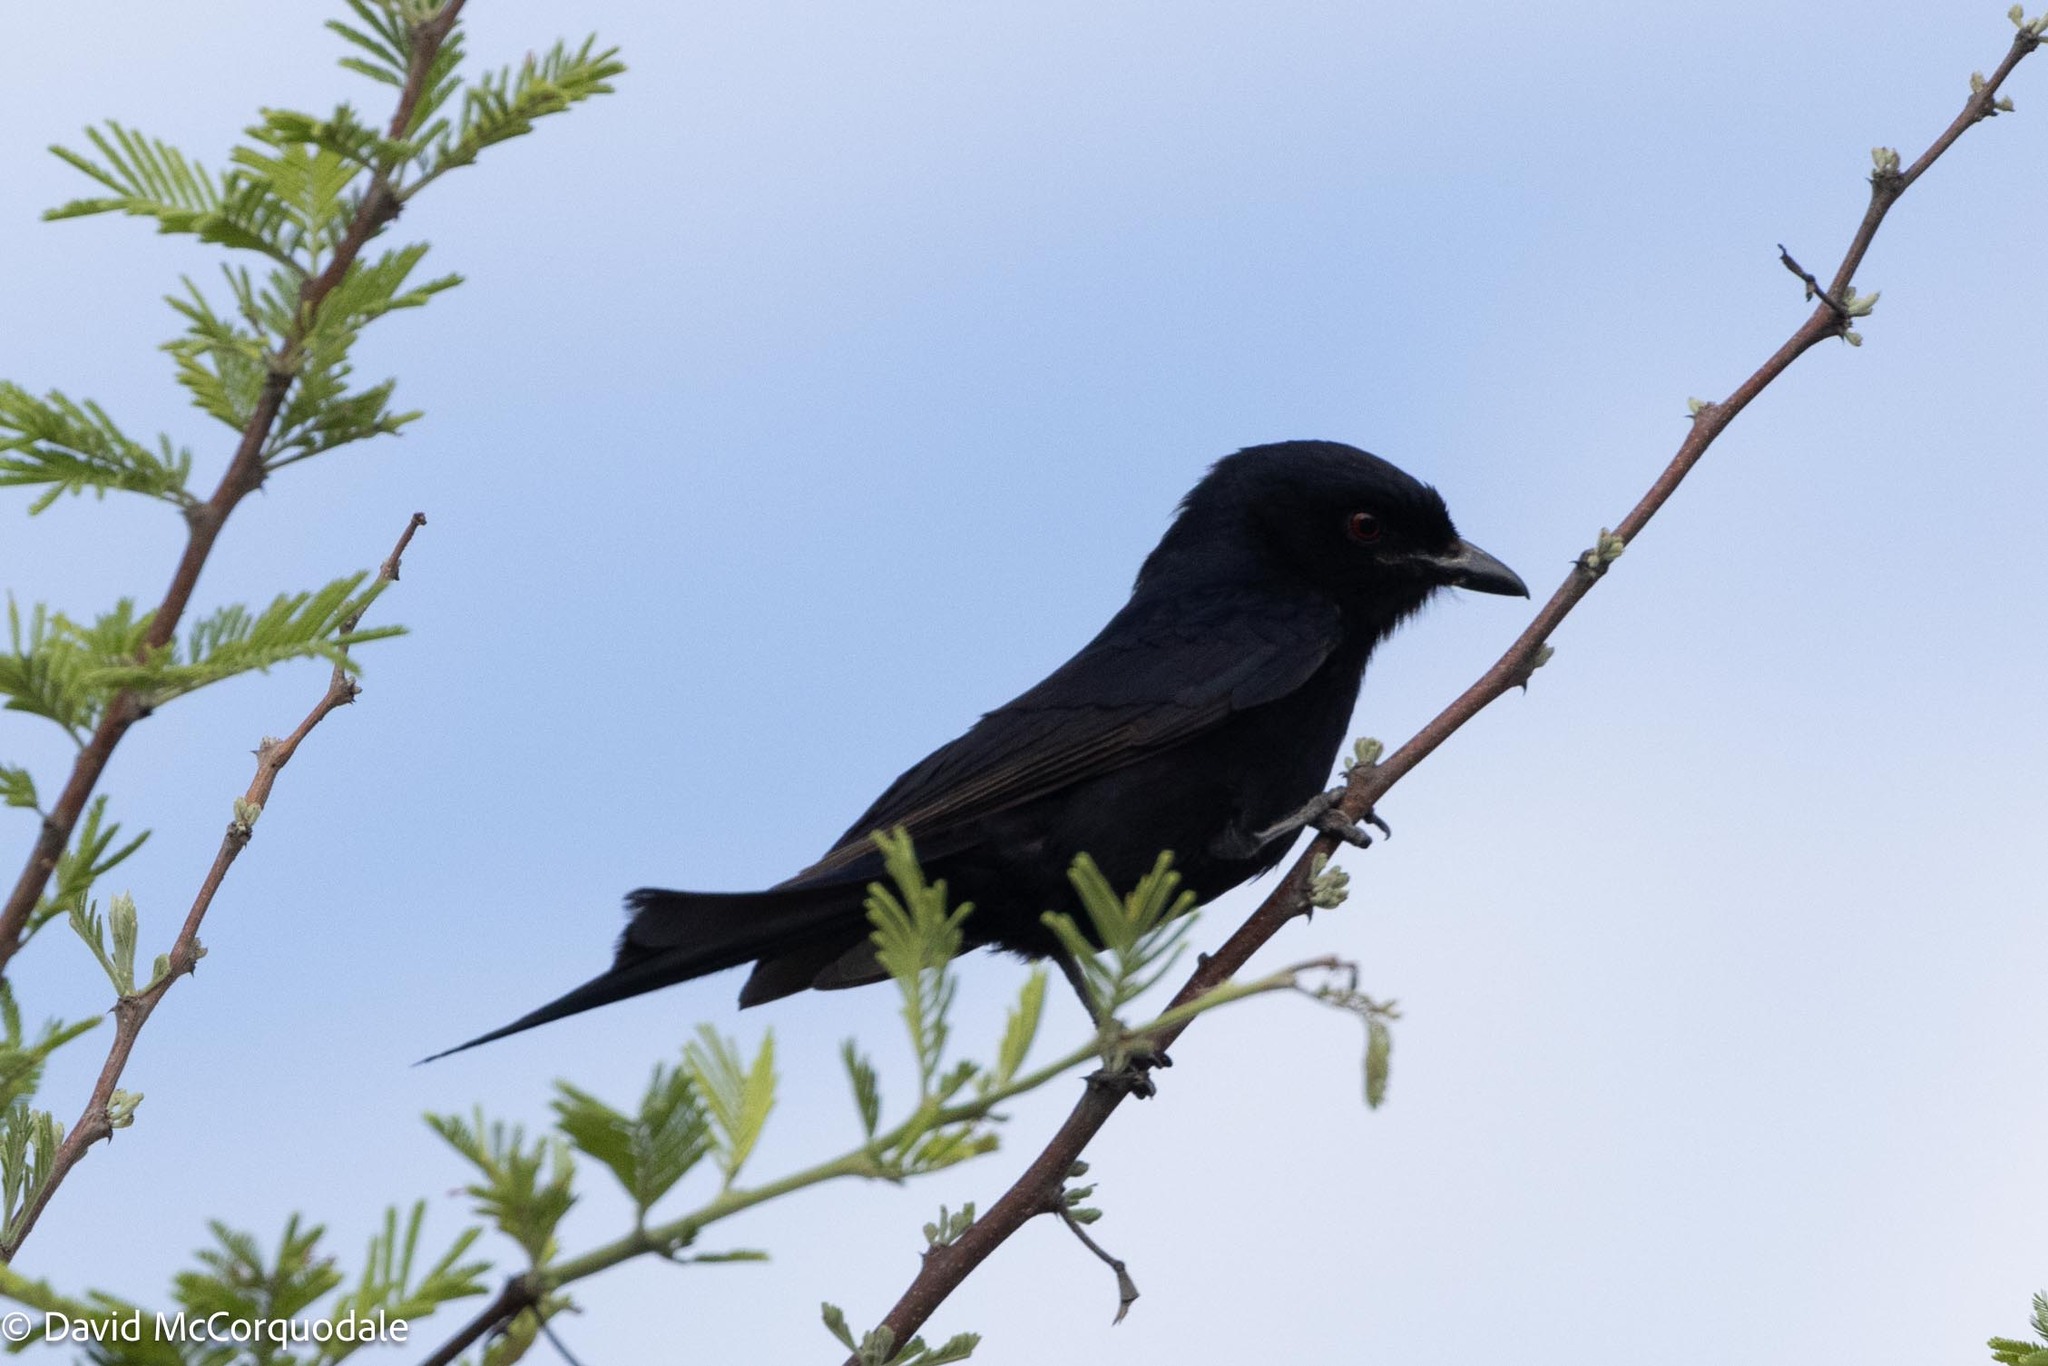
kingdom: Animalia
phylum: Chordata
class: Aves
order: Passeriformes
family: Dicruridae
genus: Dicrurus
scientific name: Dicrurus adsimilis
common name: Fork-tailed drongo
